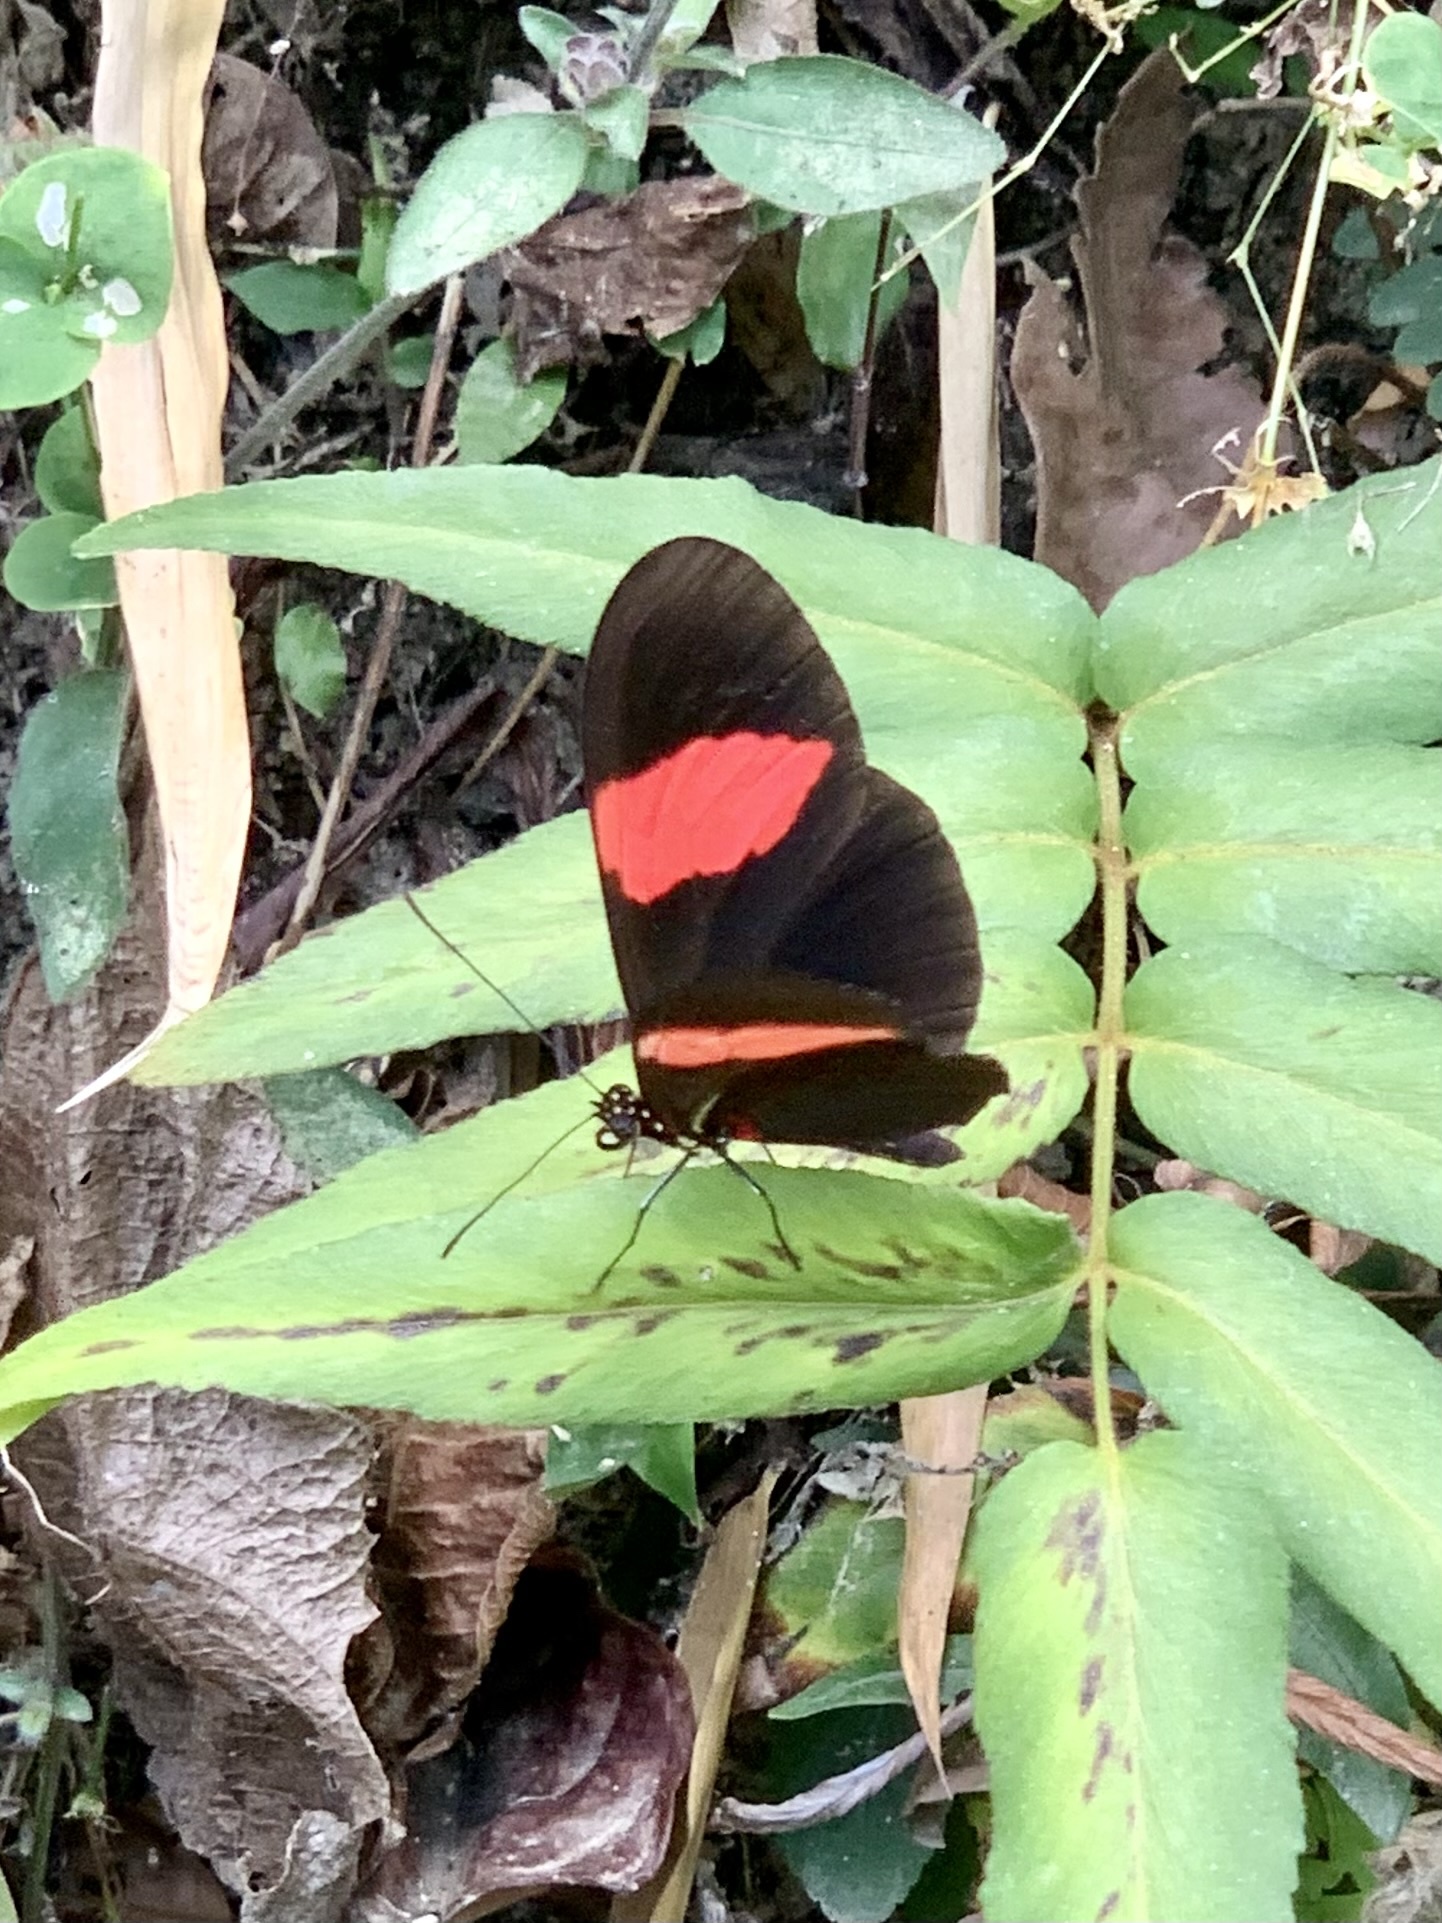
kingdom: Animalia
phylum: Arthropoda
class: Insecta
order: Lepidoptera
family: Nymphalidae
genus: Heliconius
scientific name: Heliconius erato
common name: Common patch longwing
